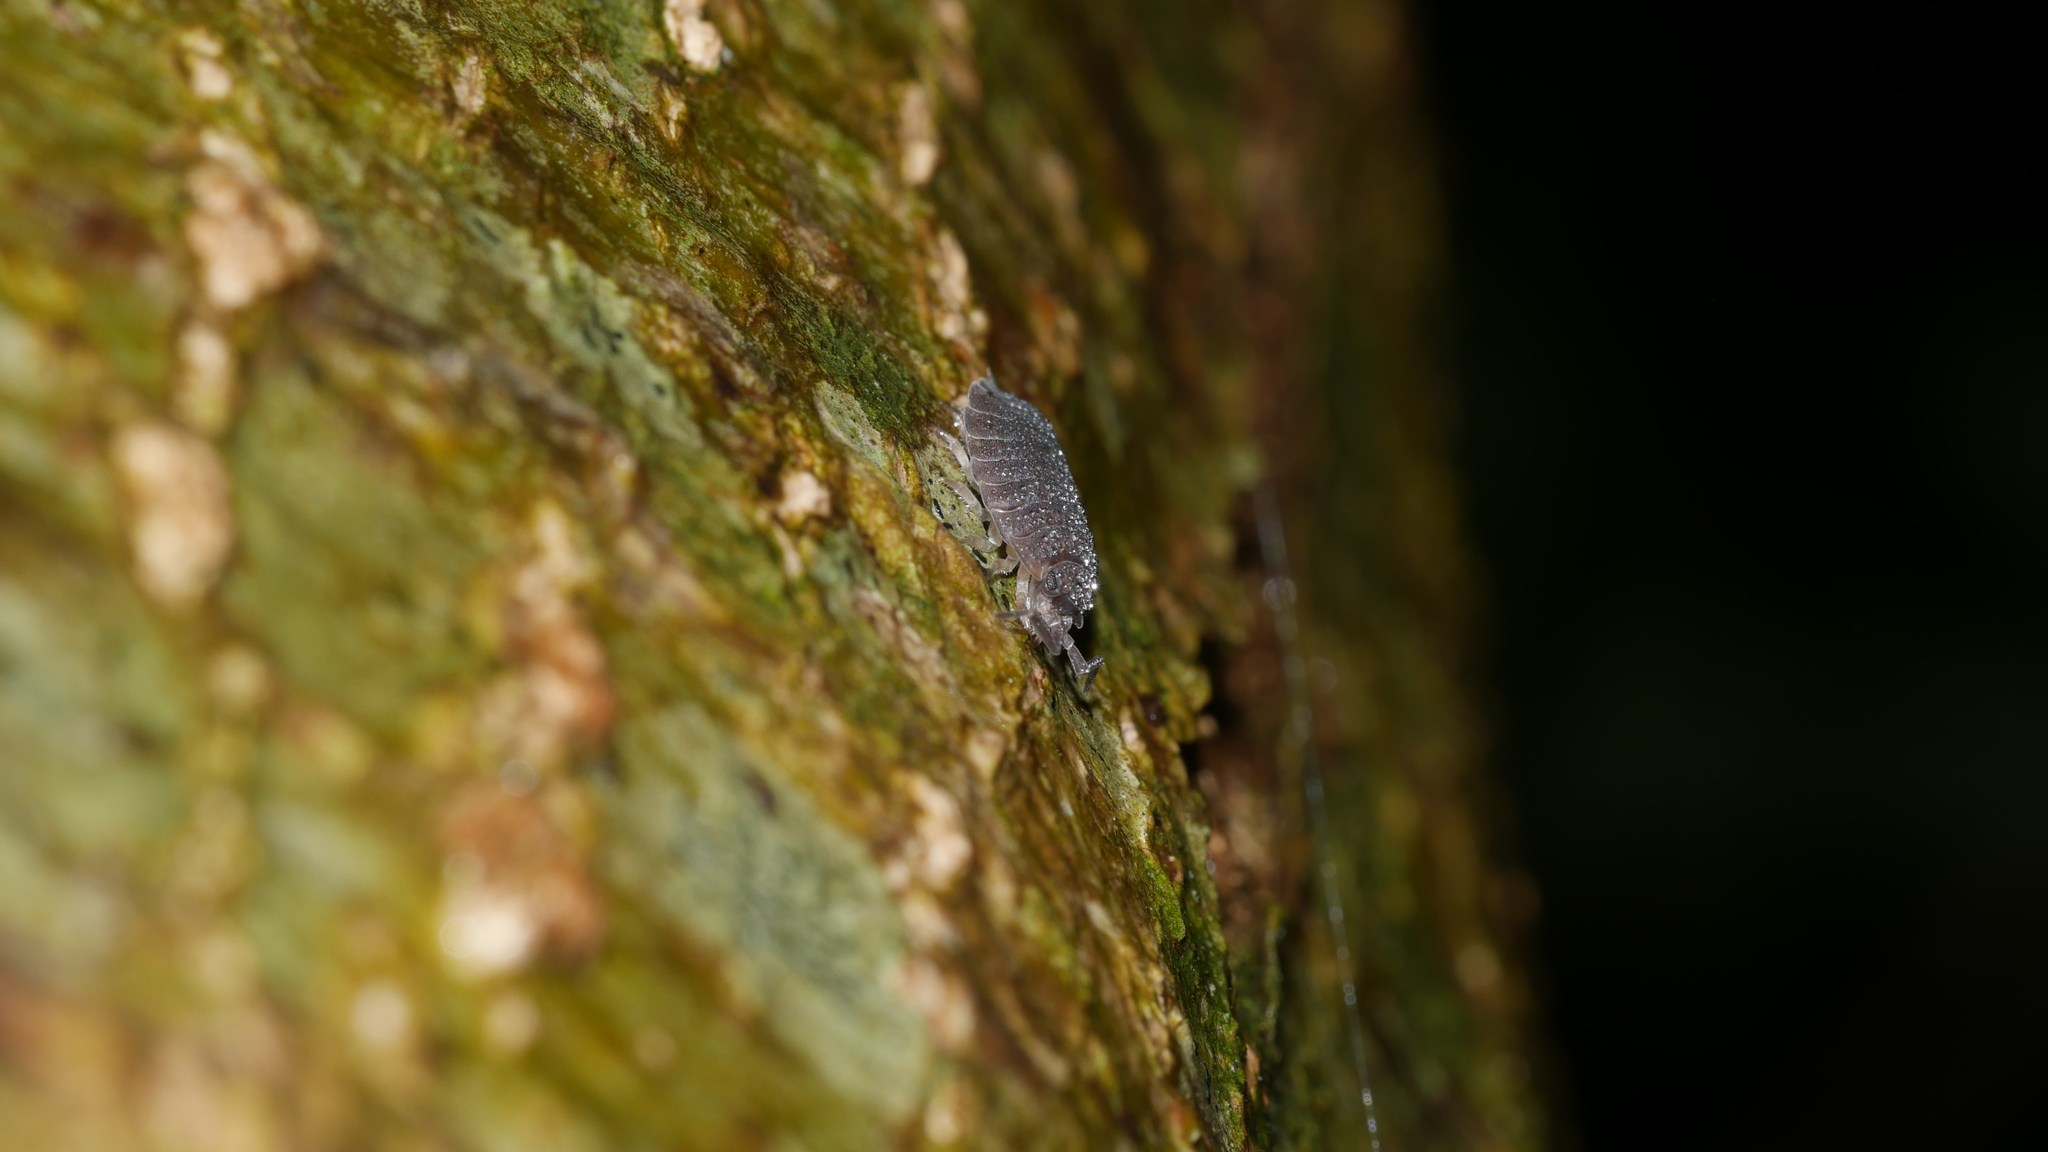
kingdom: Animalia
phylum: Arthropoda
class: Malacostraca
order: Isopoda
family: Porcellionidae
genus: Porcellio
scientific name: Porcellio scaber
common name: Common rough woodlouse
